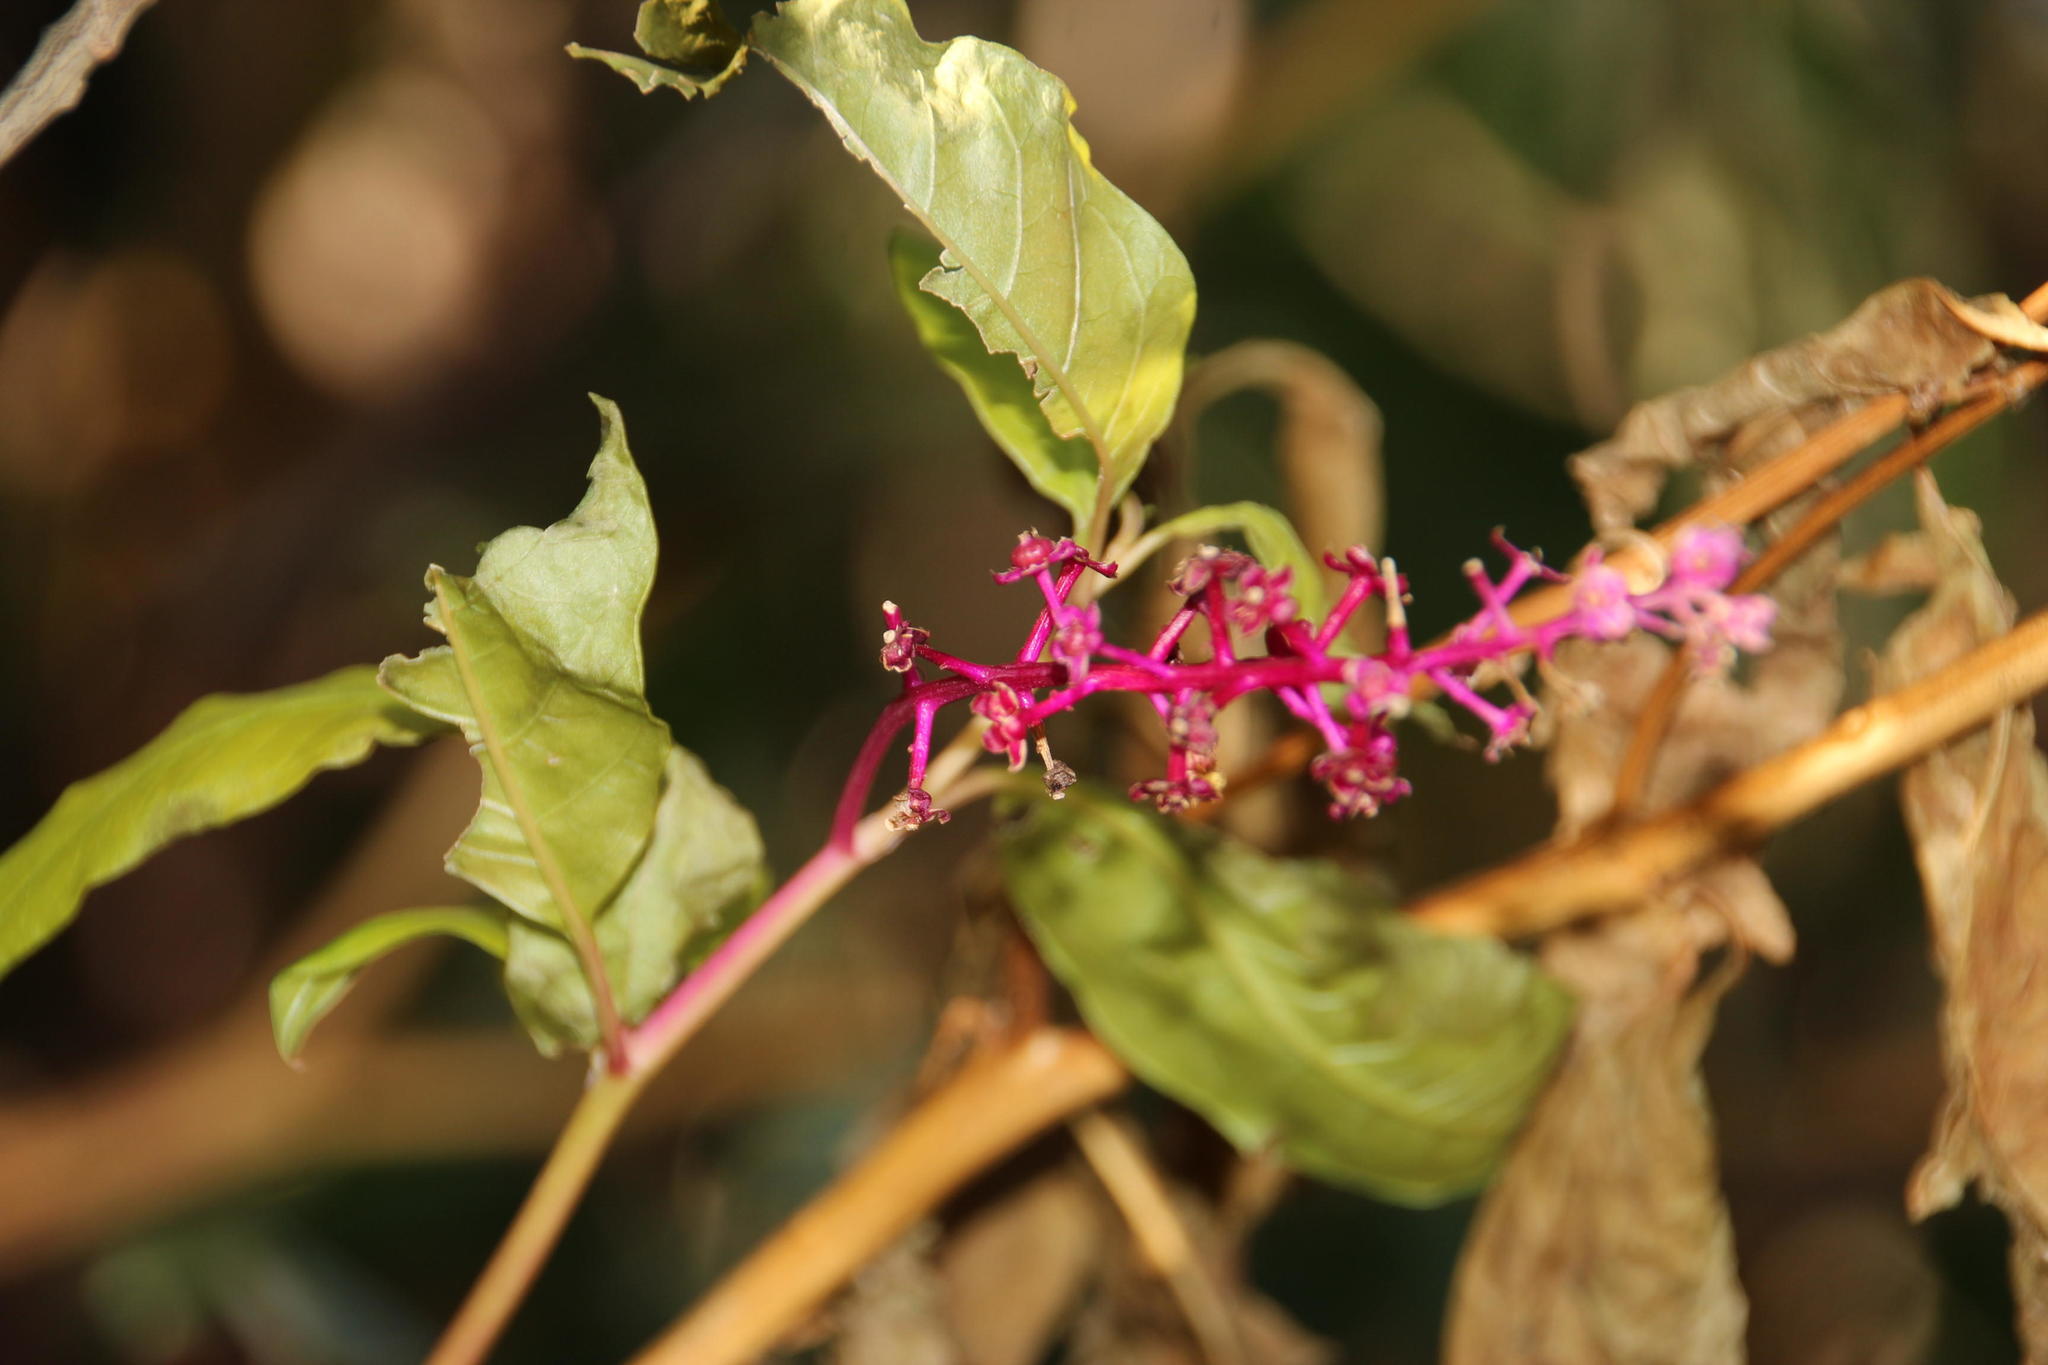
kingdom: Plantae
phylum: Tracheophyta
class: Magnoliopsida
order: Caryophyllales
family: Phytolaccaceae
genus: Phytolacca
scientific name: Phytolacca americana
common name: American pokeweed
